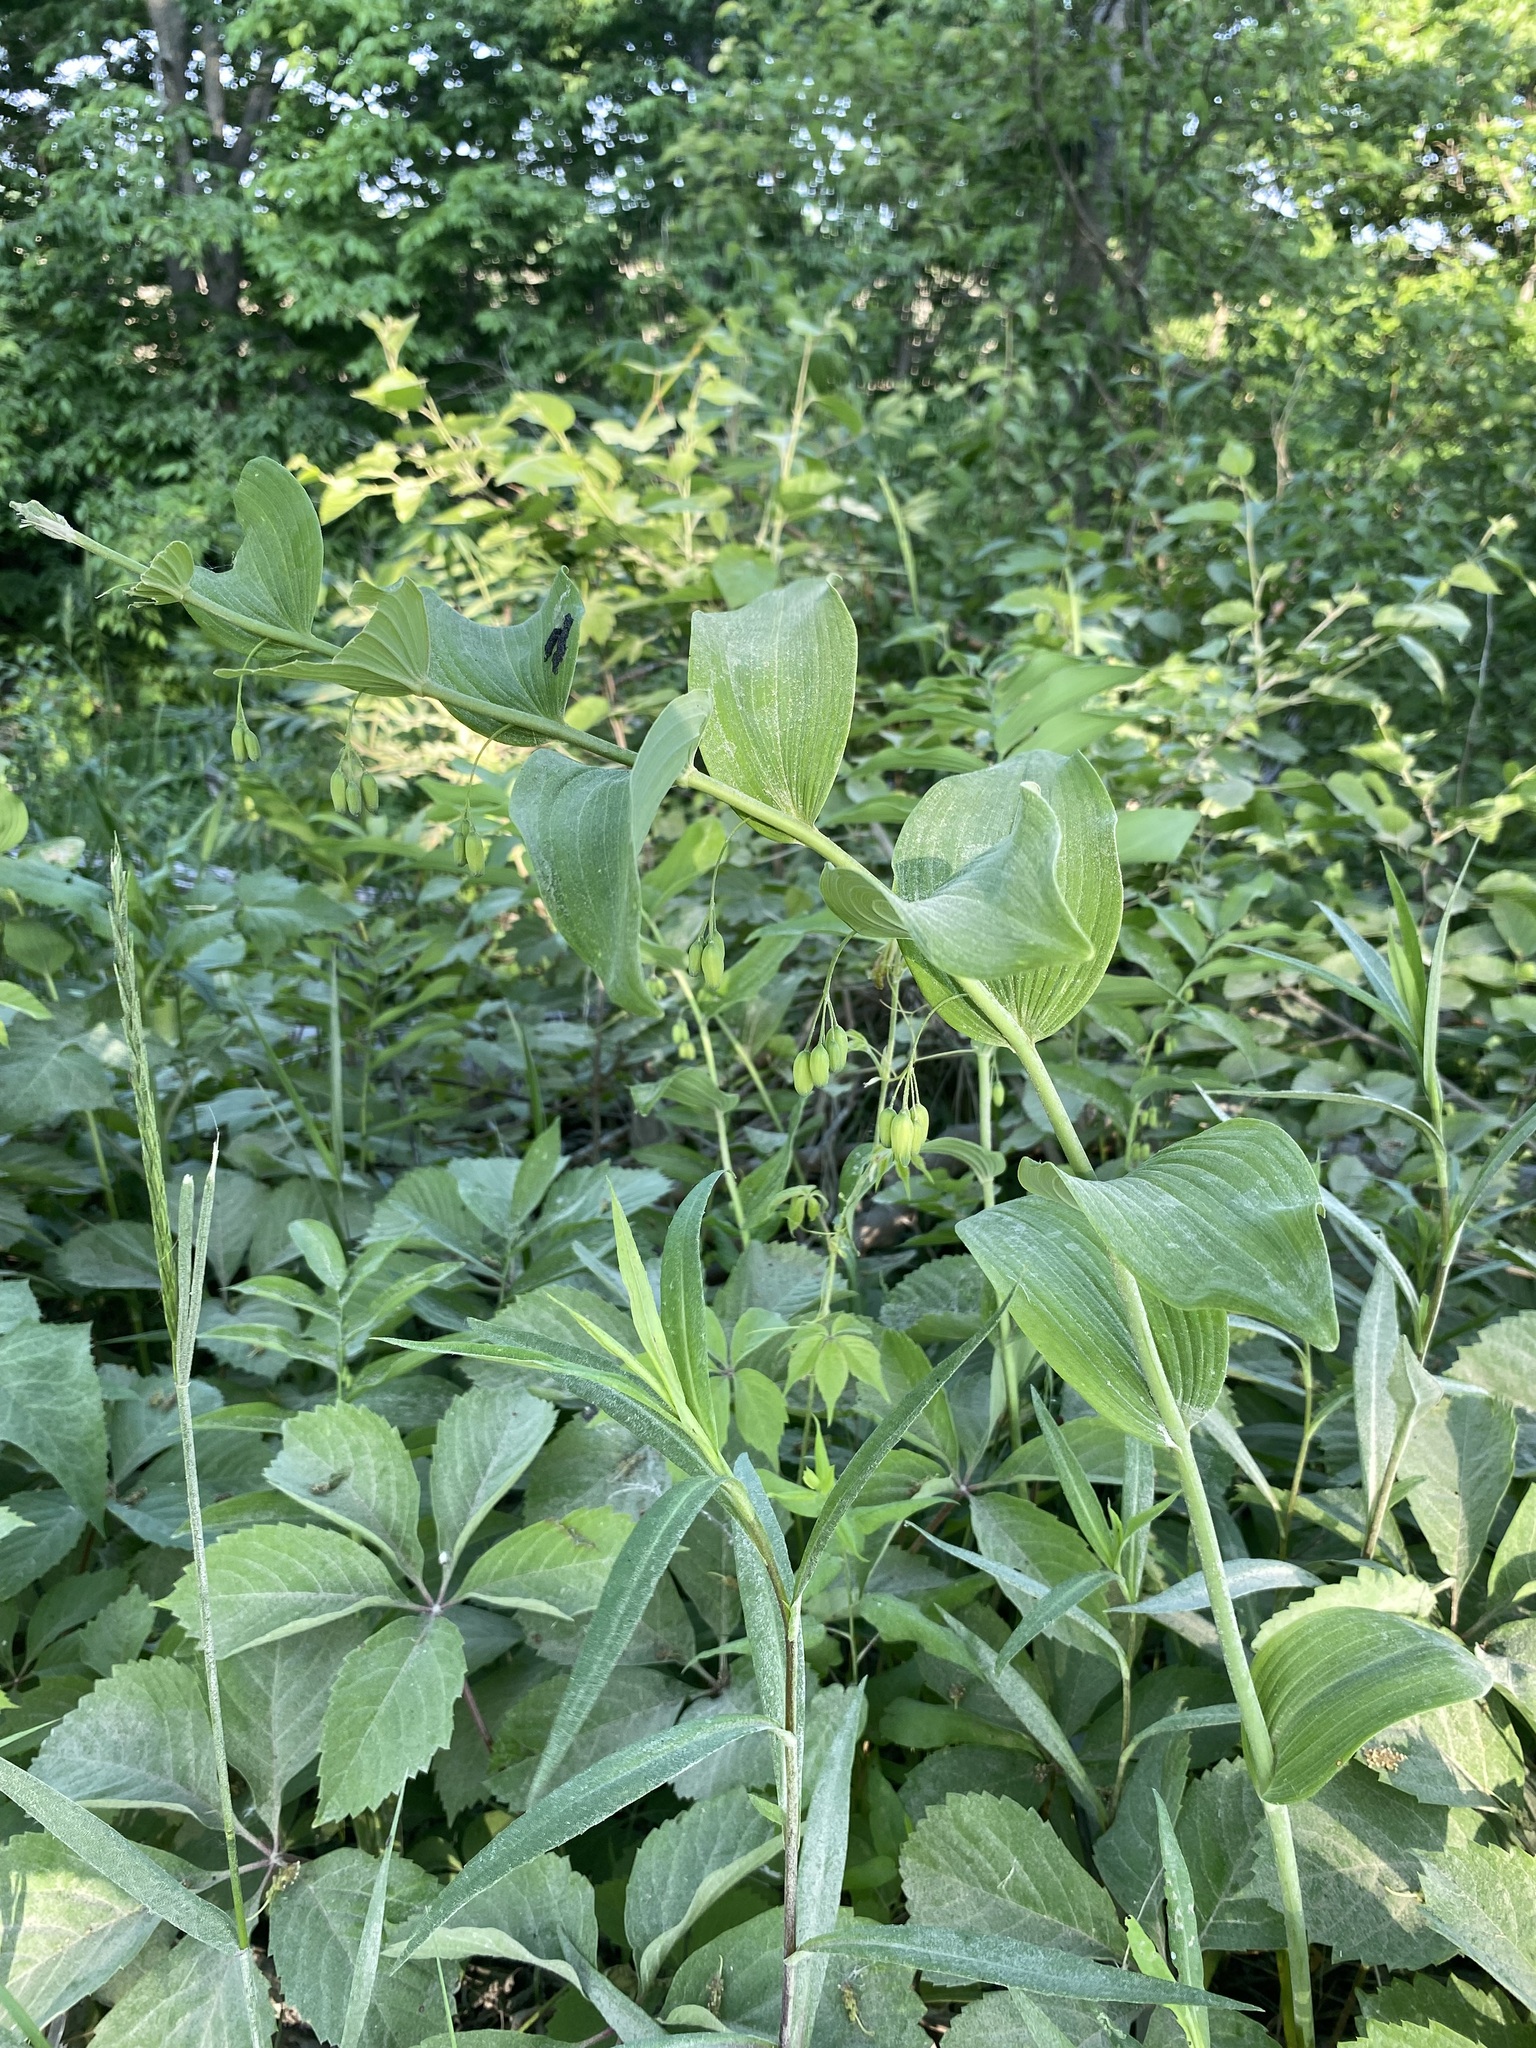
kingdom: Plantae
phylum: Tracheophyta
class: Liliopsida
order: Asparagales
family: Asparagaceae
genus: Polygonatum
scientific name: Polygonatum biflorum
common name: American solomon's-seal
